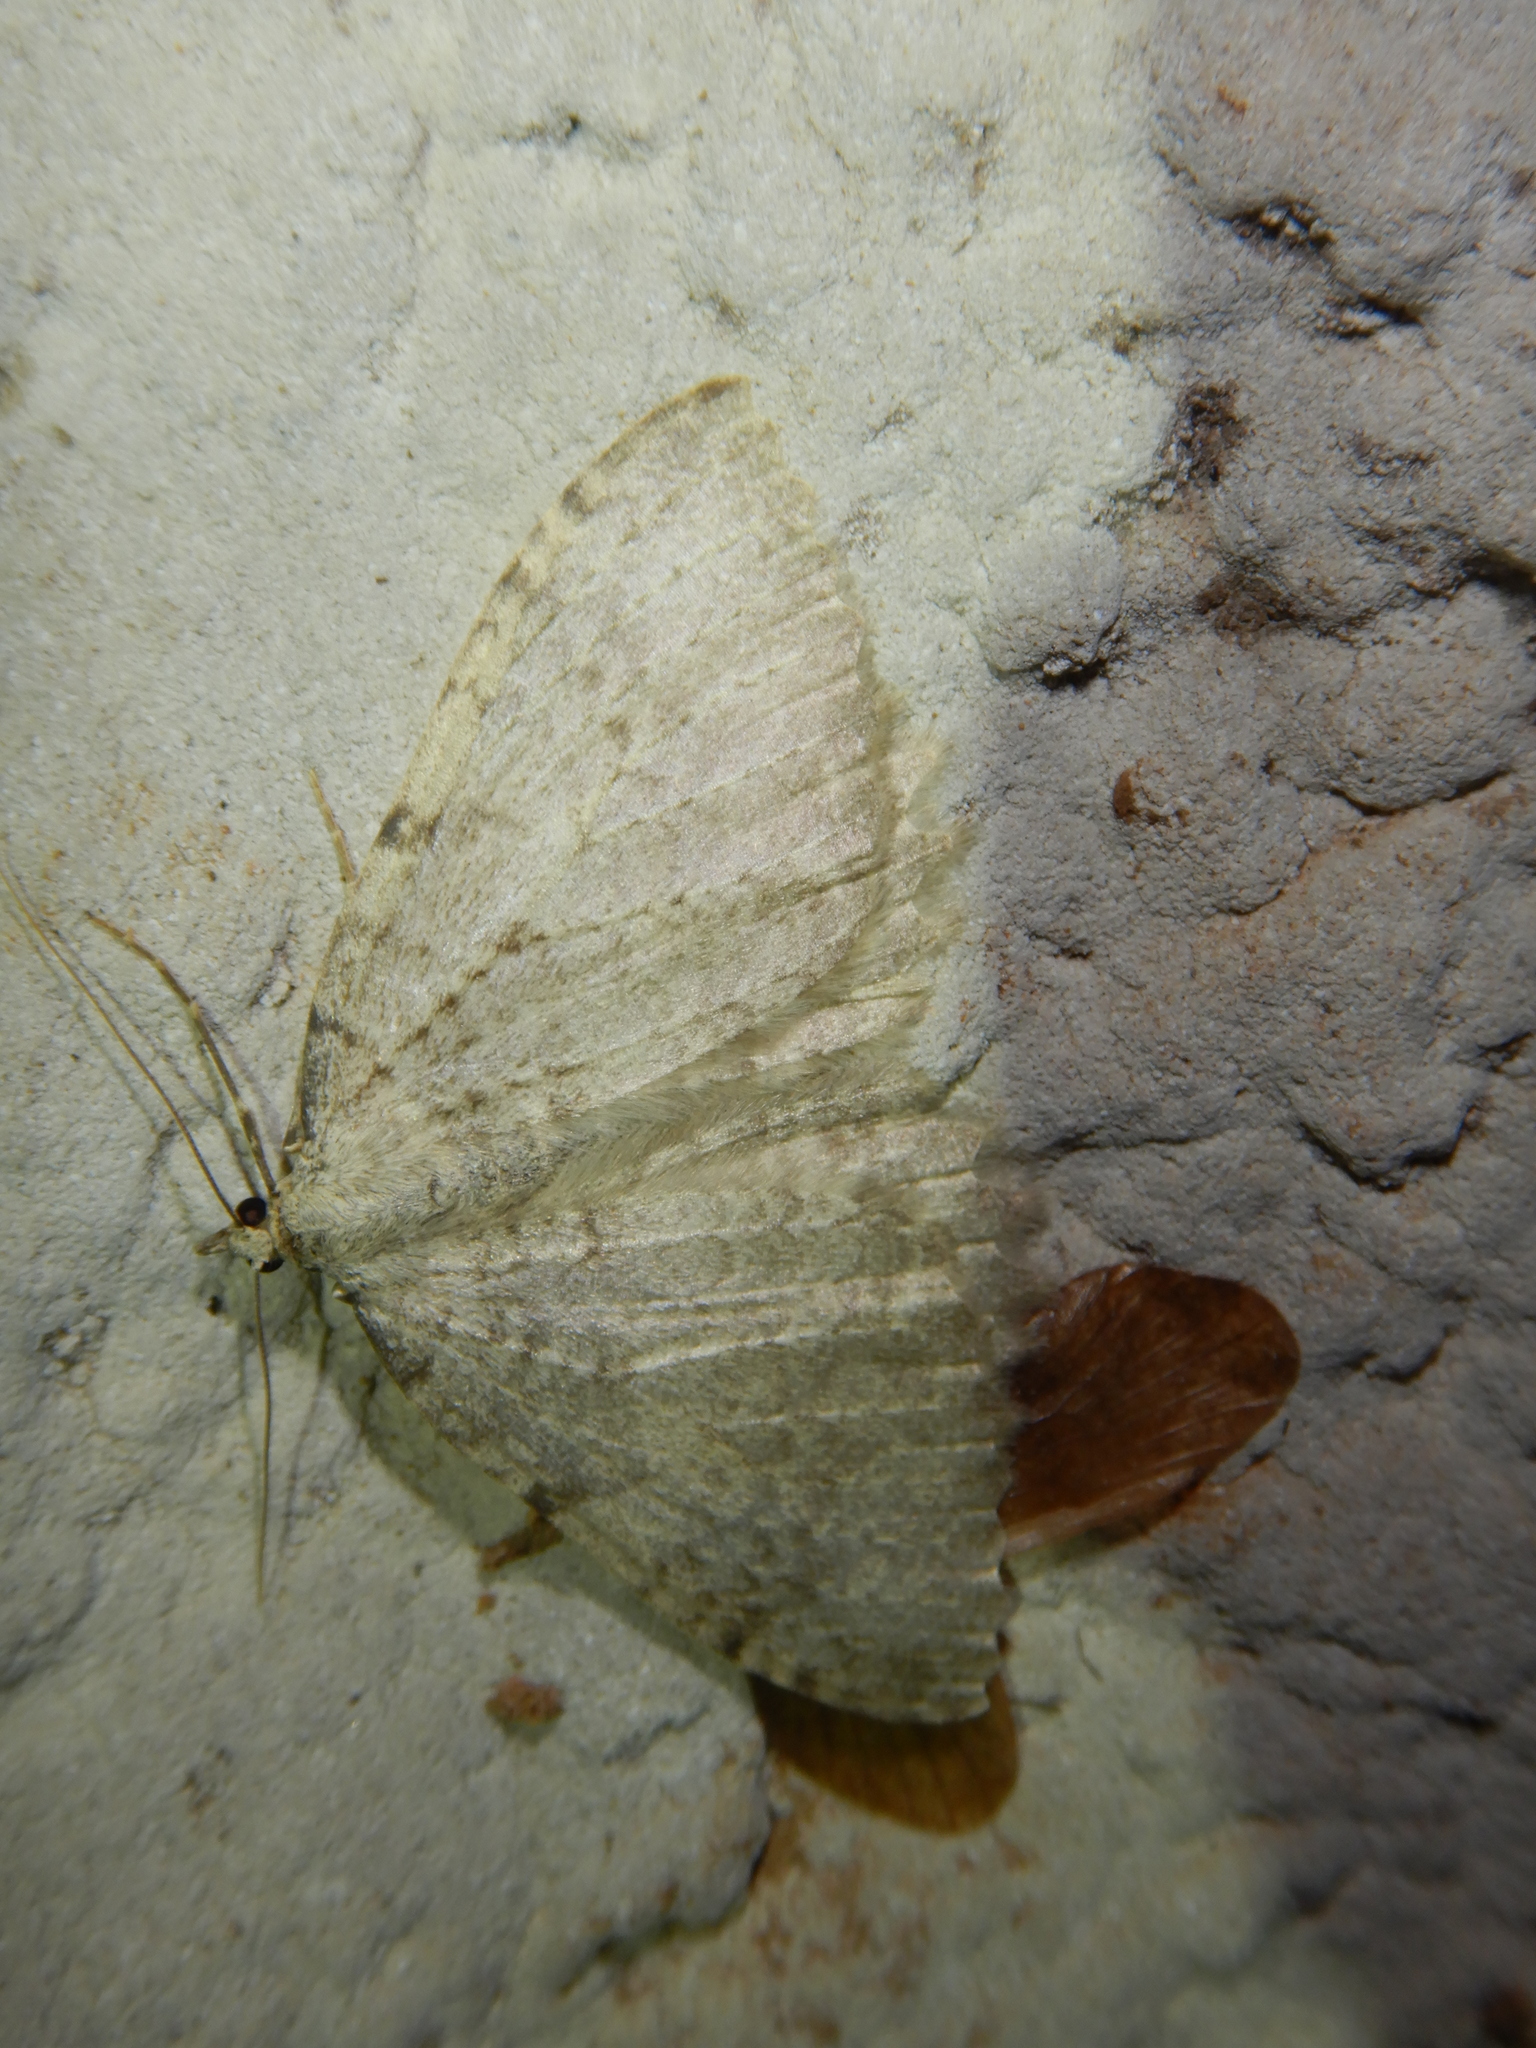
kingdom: Animalia
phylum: Arthropoda
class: Insecta
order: Lepidoptera
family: Geometridae
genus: Triphosa
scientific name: Triphosa sabaudiata
